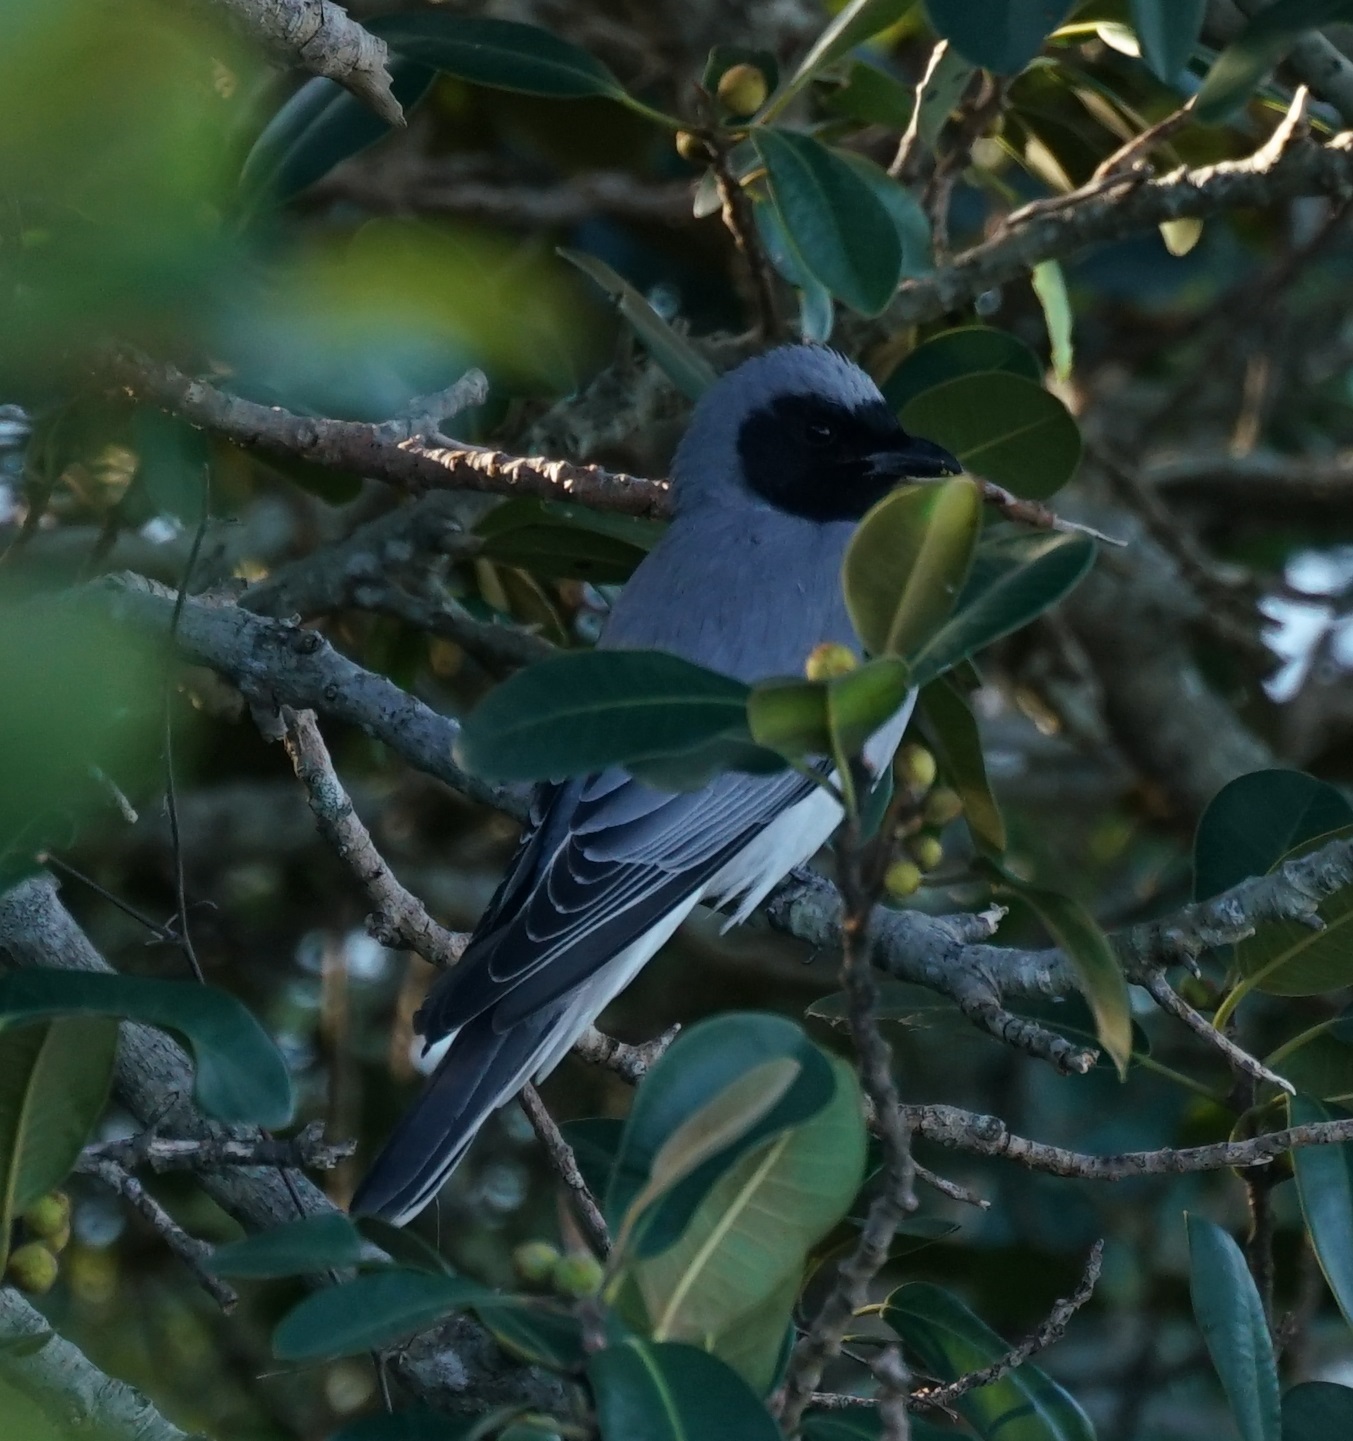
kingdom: Animalia
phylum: Chordata
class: Aves
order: Passeriformes
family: Campephagidae
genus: Coracina
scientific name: Coracina novaehollandiae
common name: Black-faced cuckooshrike
